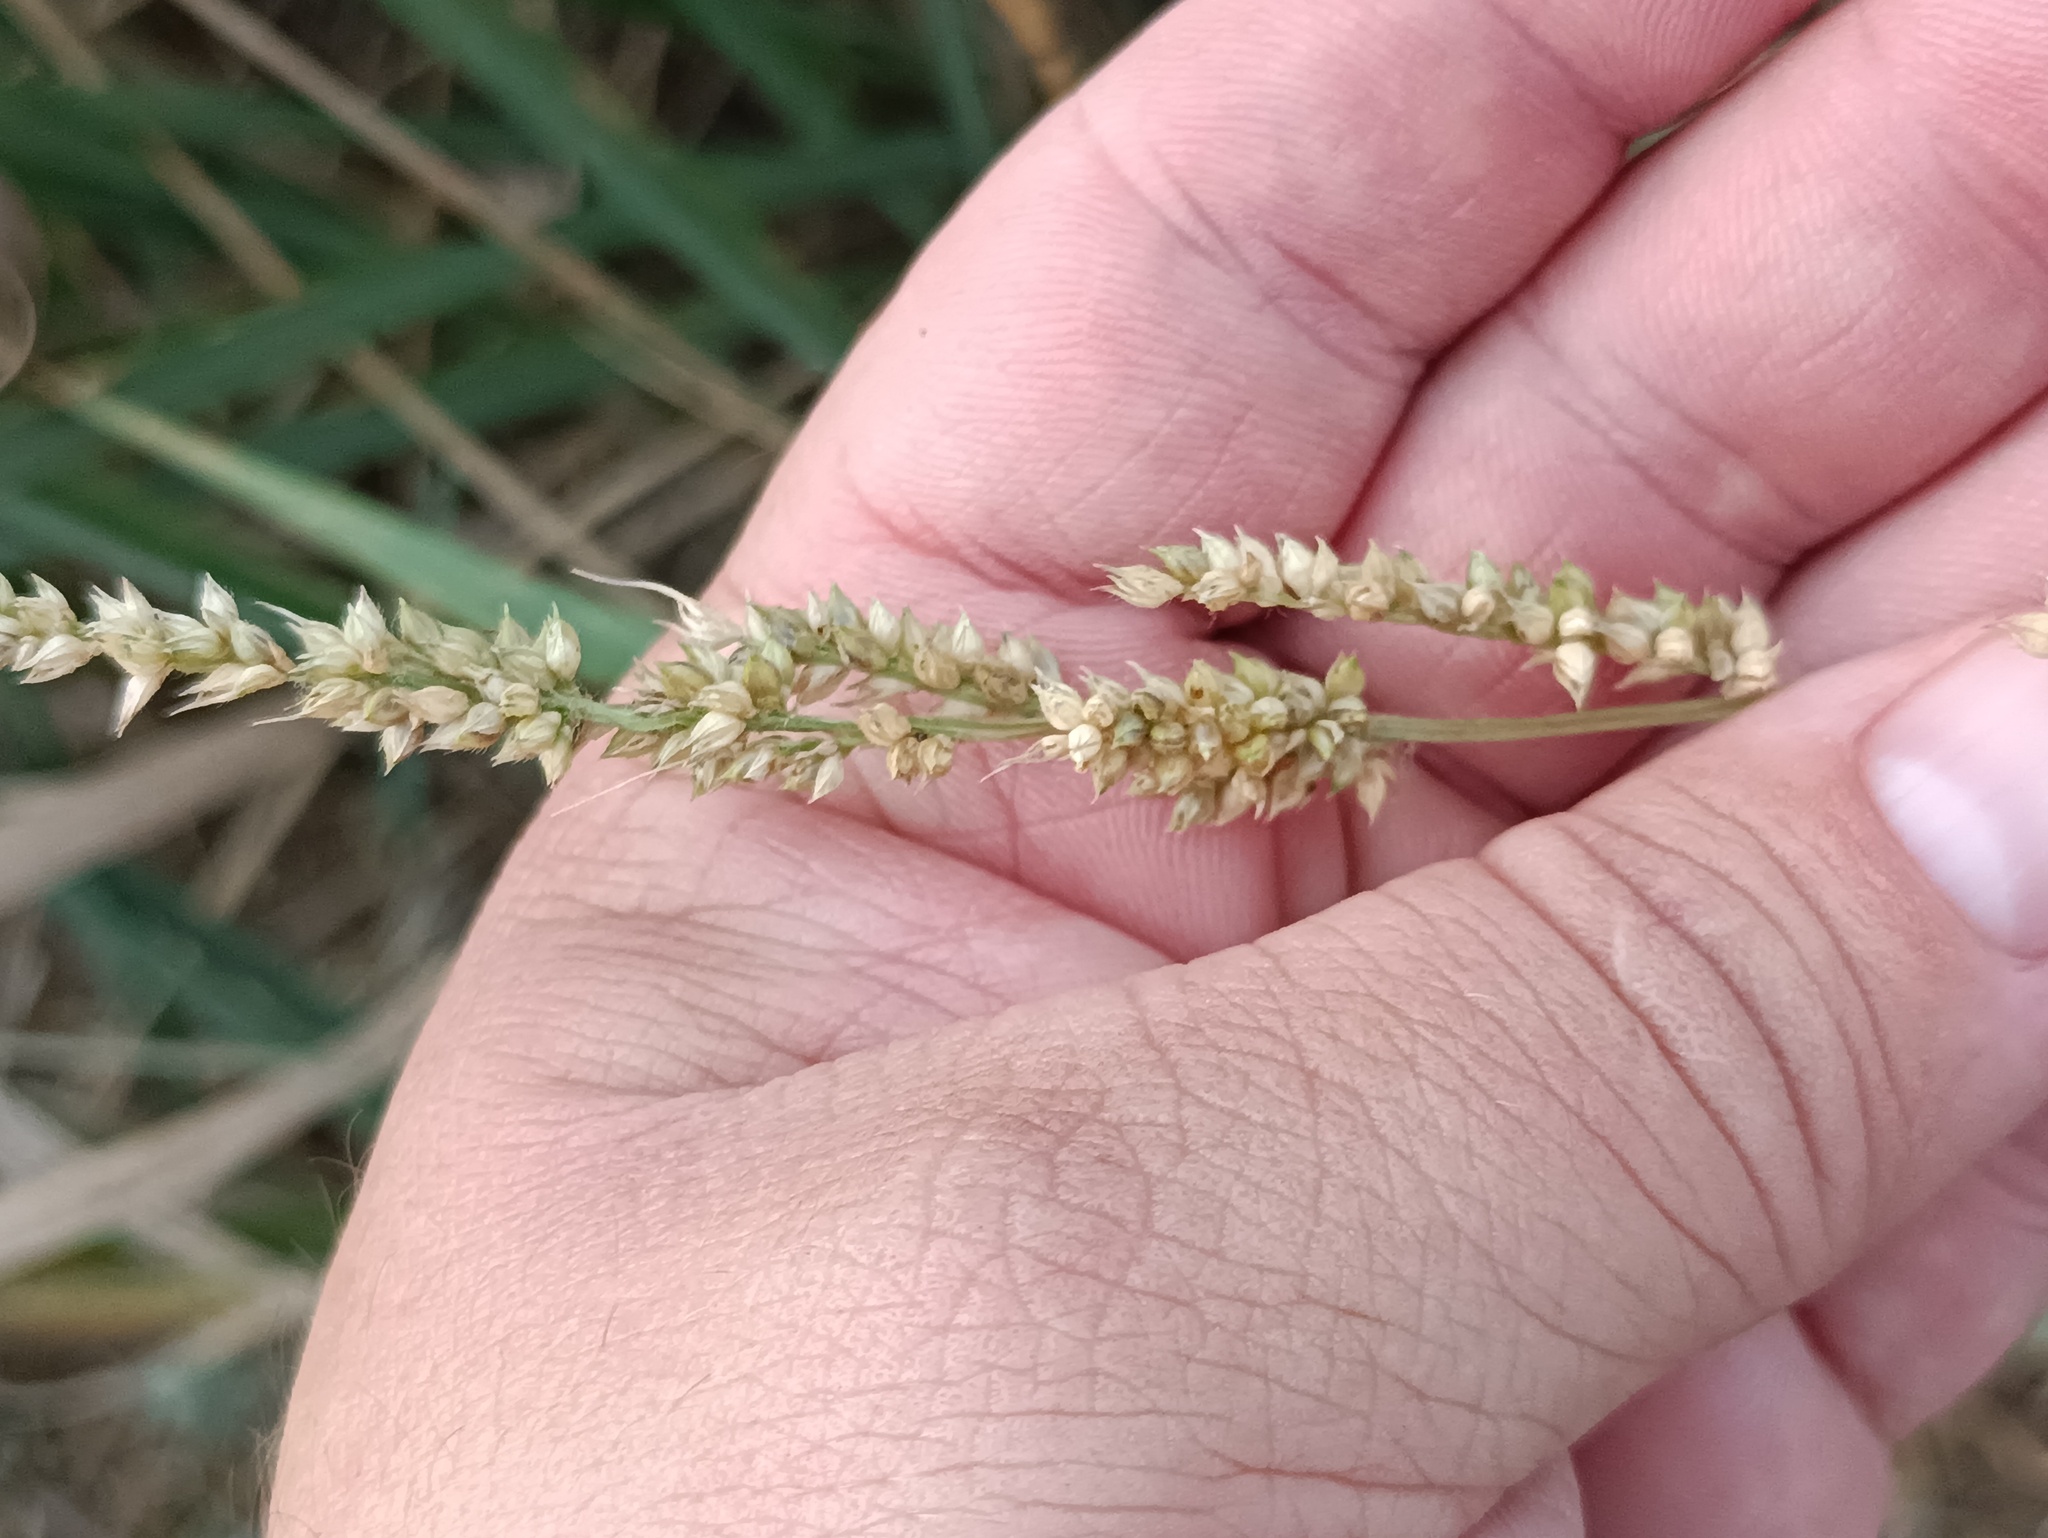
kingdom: Plantae
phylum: Tracheophyta
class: Liliopsida
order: Poales
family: Poaceae
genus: Echinochloa
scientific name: Echinochloa crus-galli
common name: Cockspur
